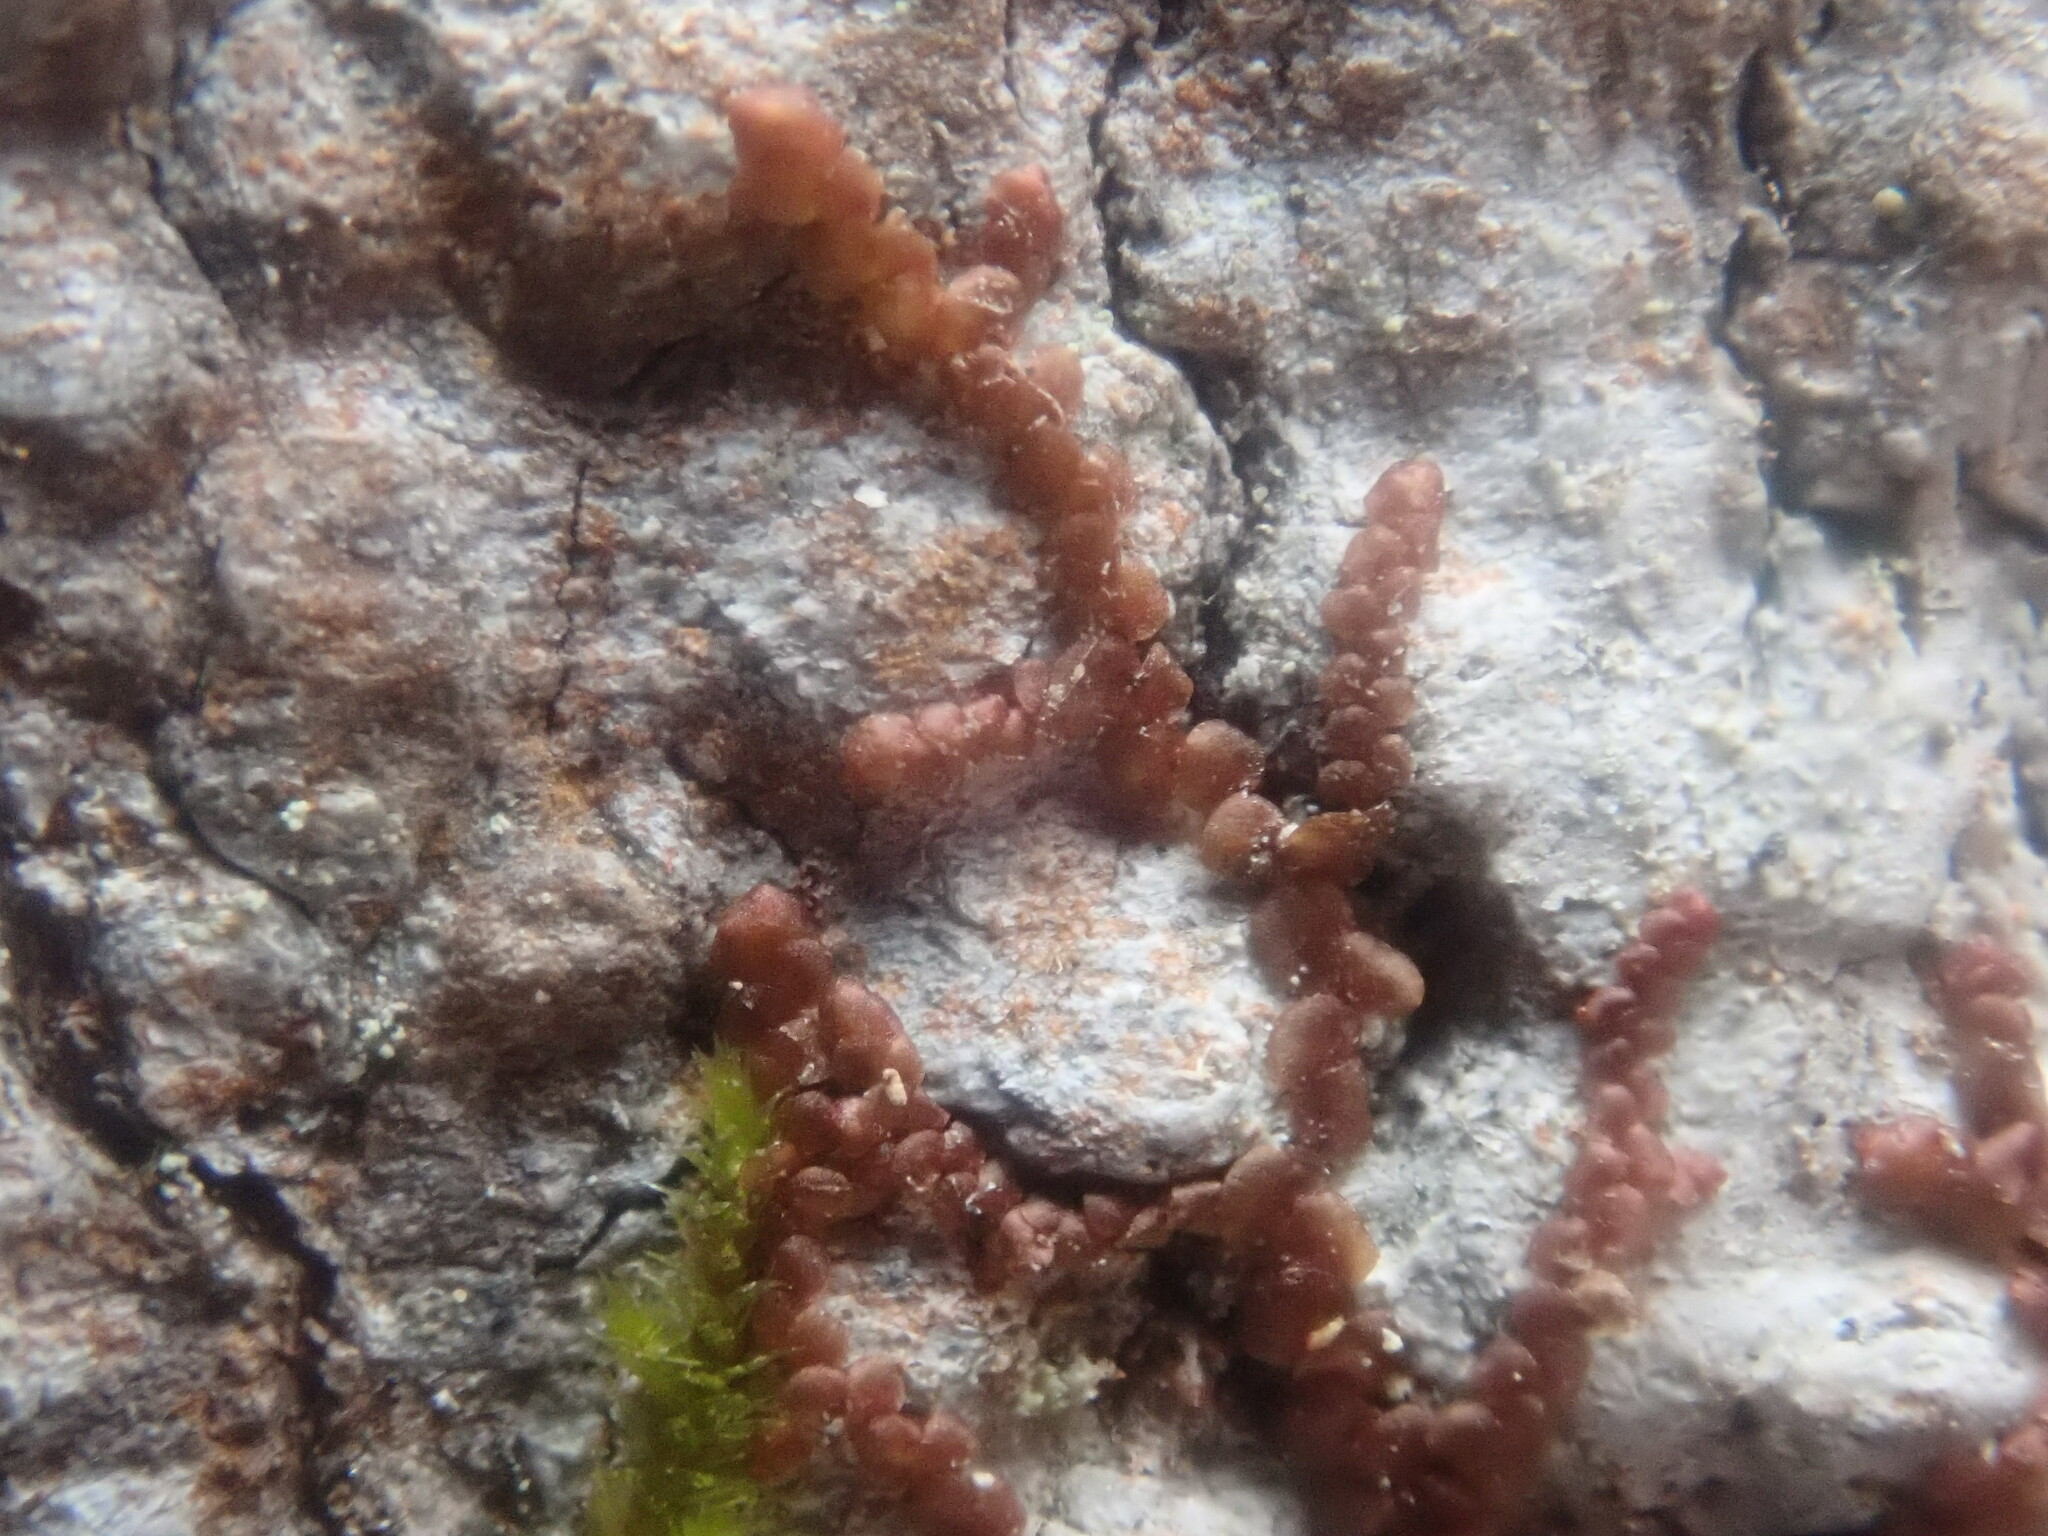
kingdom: Plantae
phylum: Marchantiophyta
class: Jungermanniopsida
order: Porellales
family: Frullaniaceae
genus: Frullania
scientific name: Frullania
